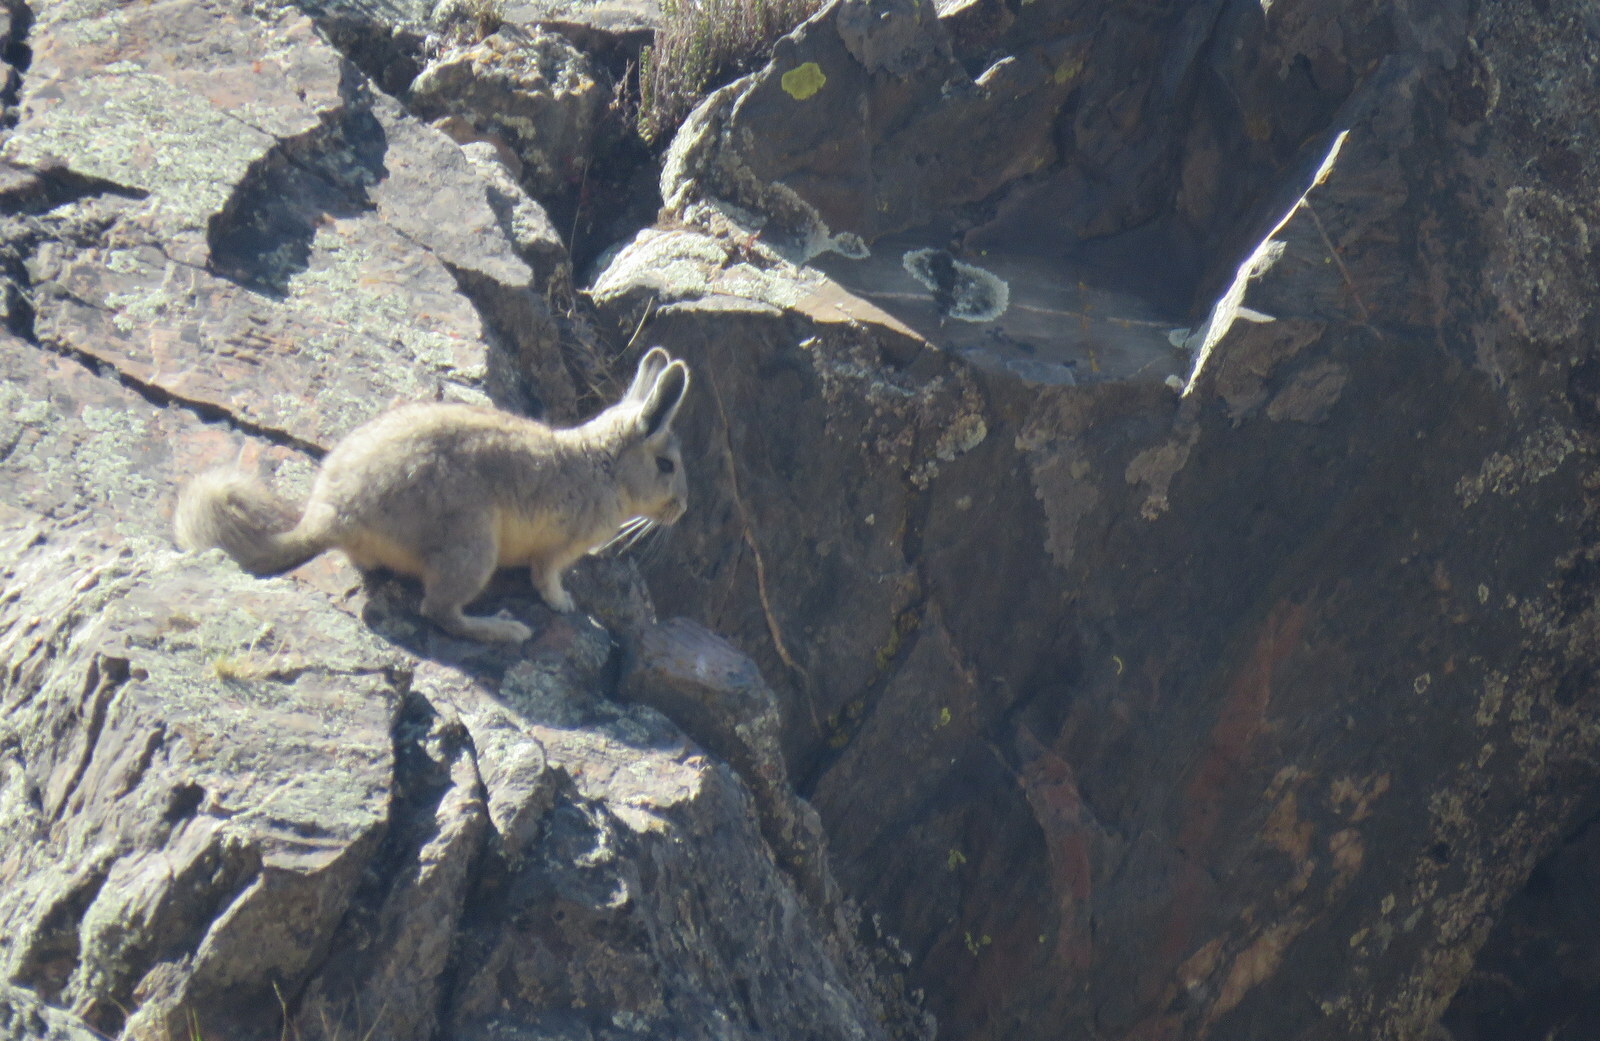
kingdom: Animalia
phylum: Chordata
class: Mammalia
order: Rodentia
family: Chinchillidae
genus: Lagidium
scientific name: Lagidium viscacia
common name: Southern viscacha
